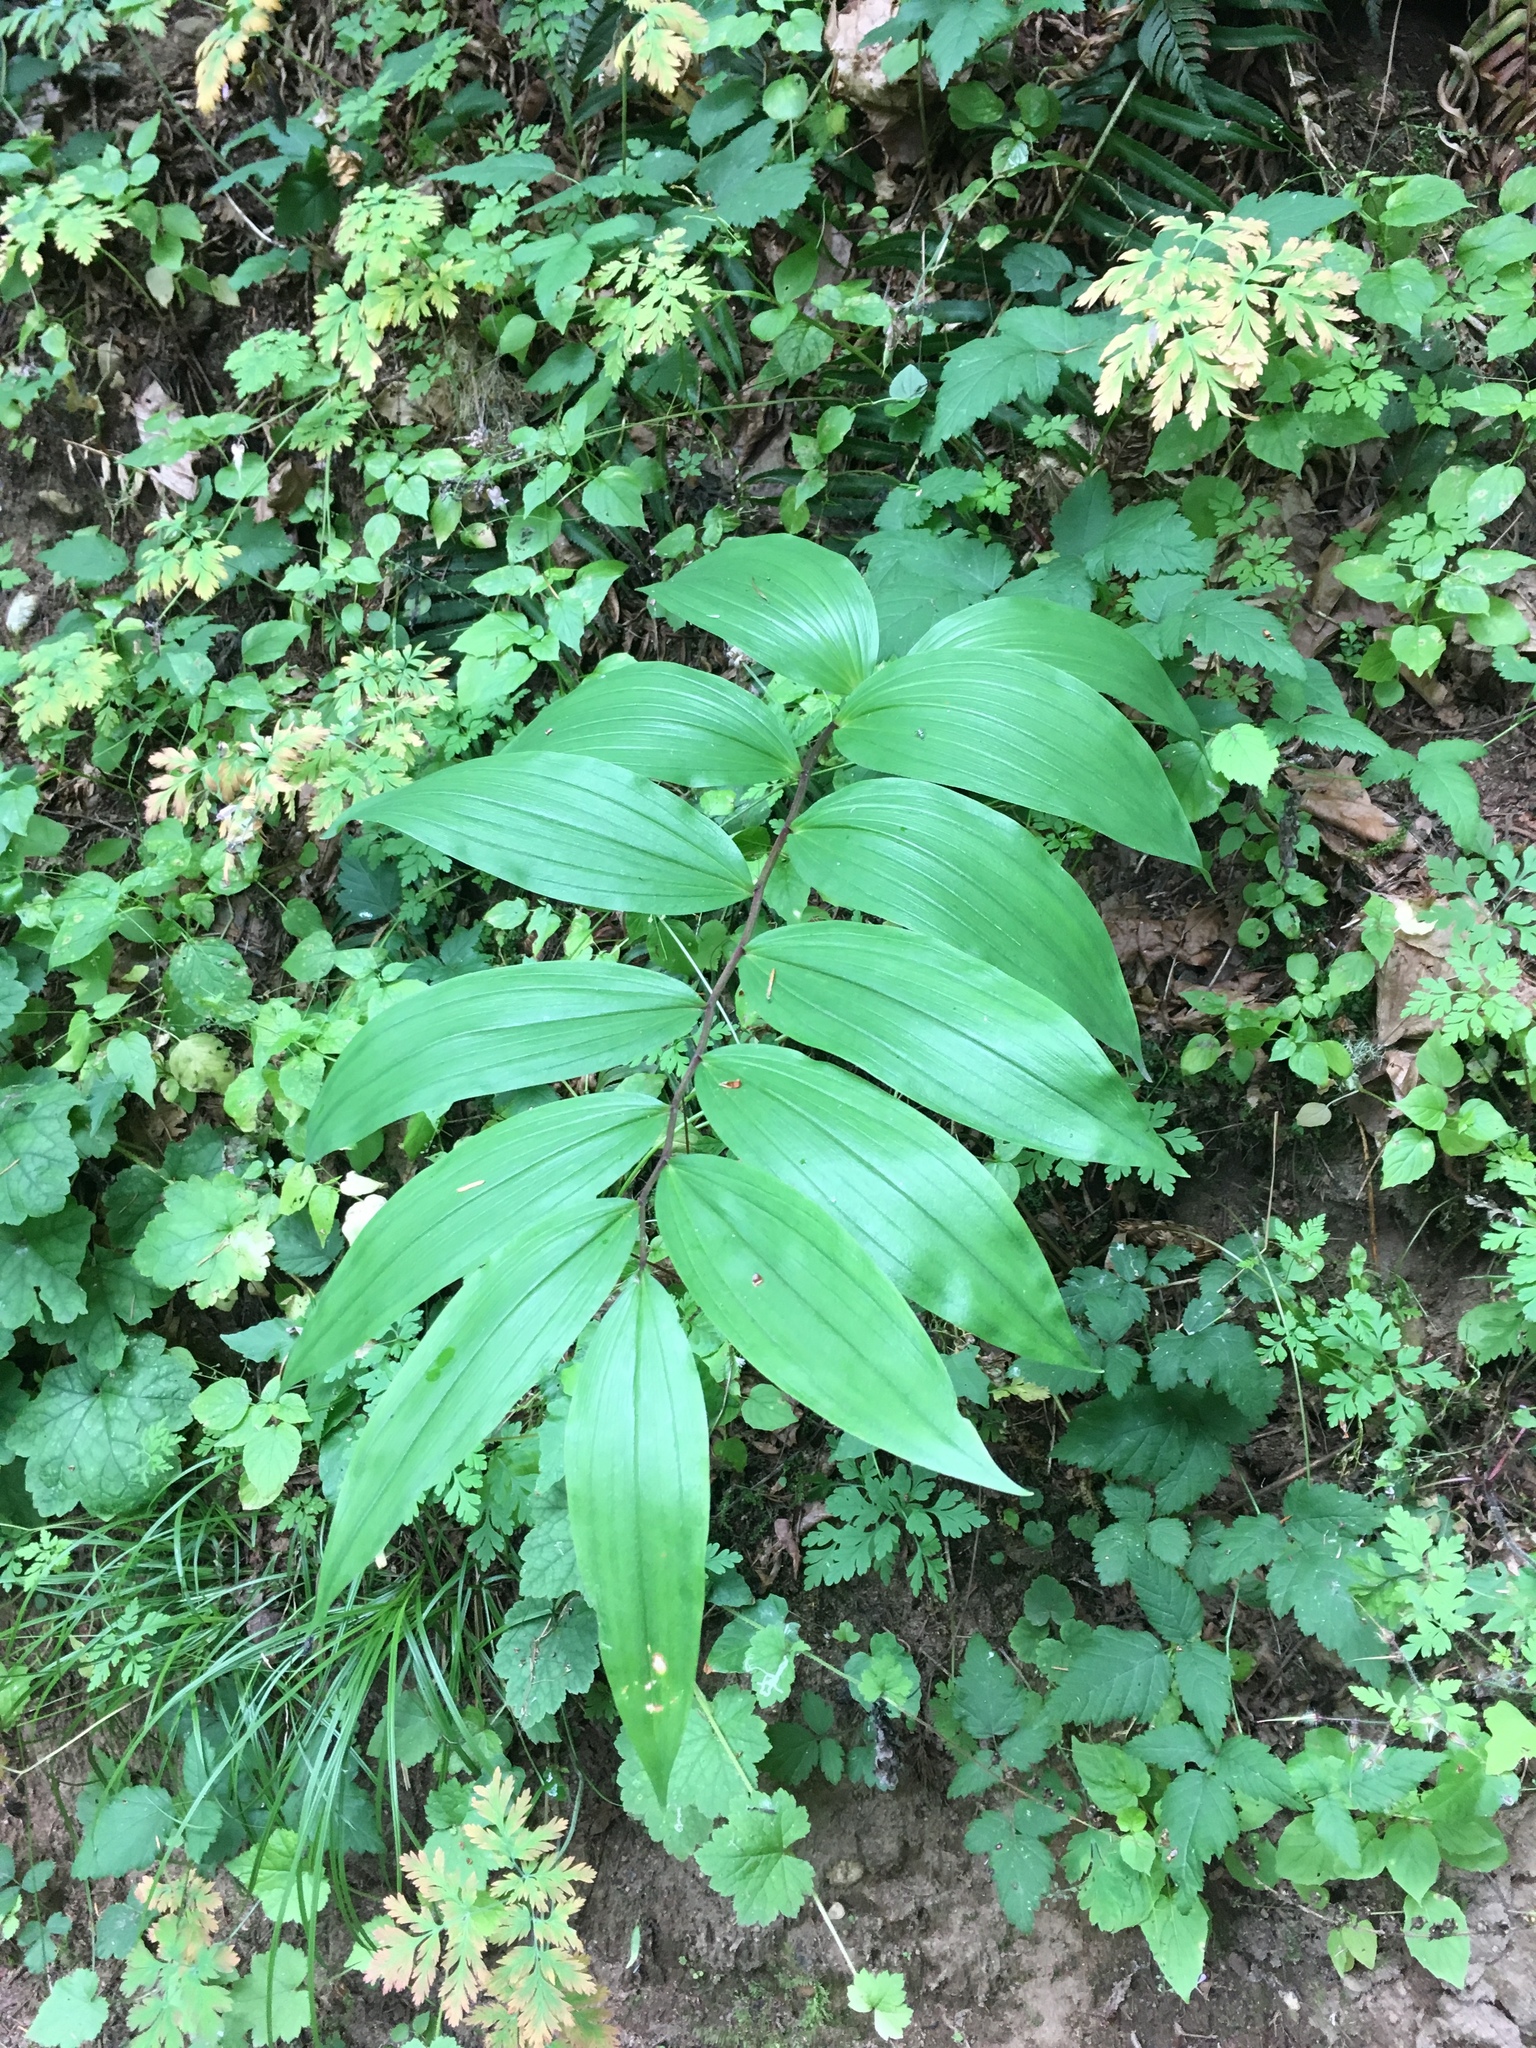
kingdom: Plantae
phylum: Tracheophyta
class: Liliopsida
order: Asparagales
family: Asparagaceae
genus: Maianthemum
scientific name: Maianthemum racemosum
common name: False spikenard
